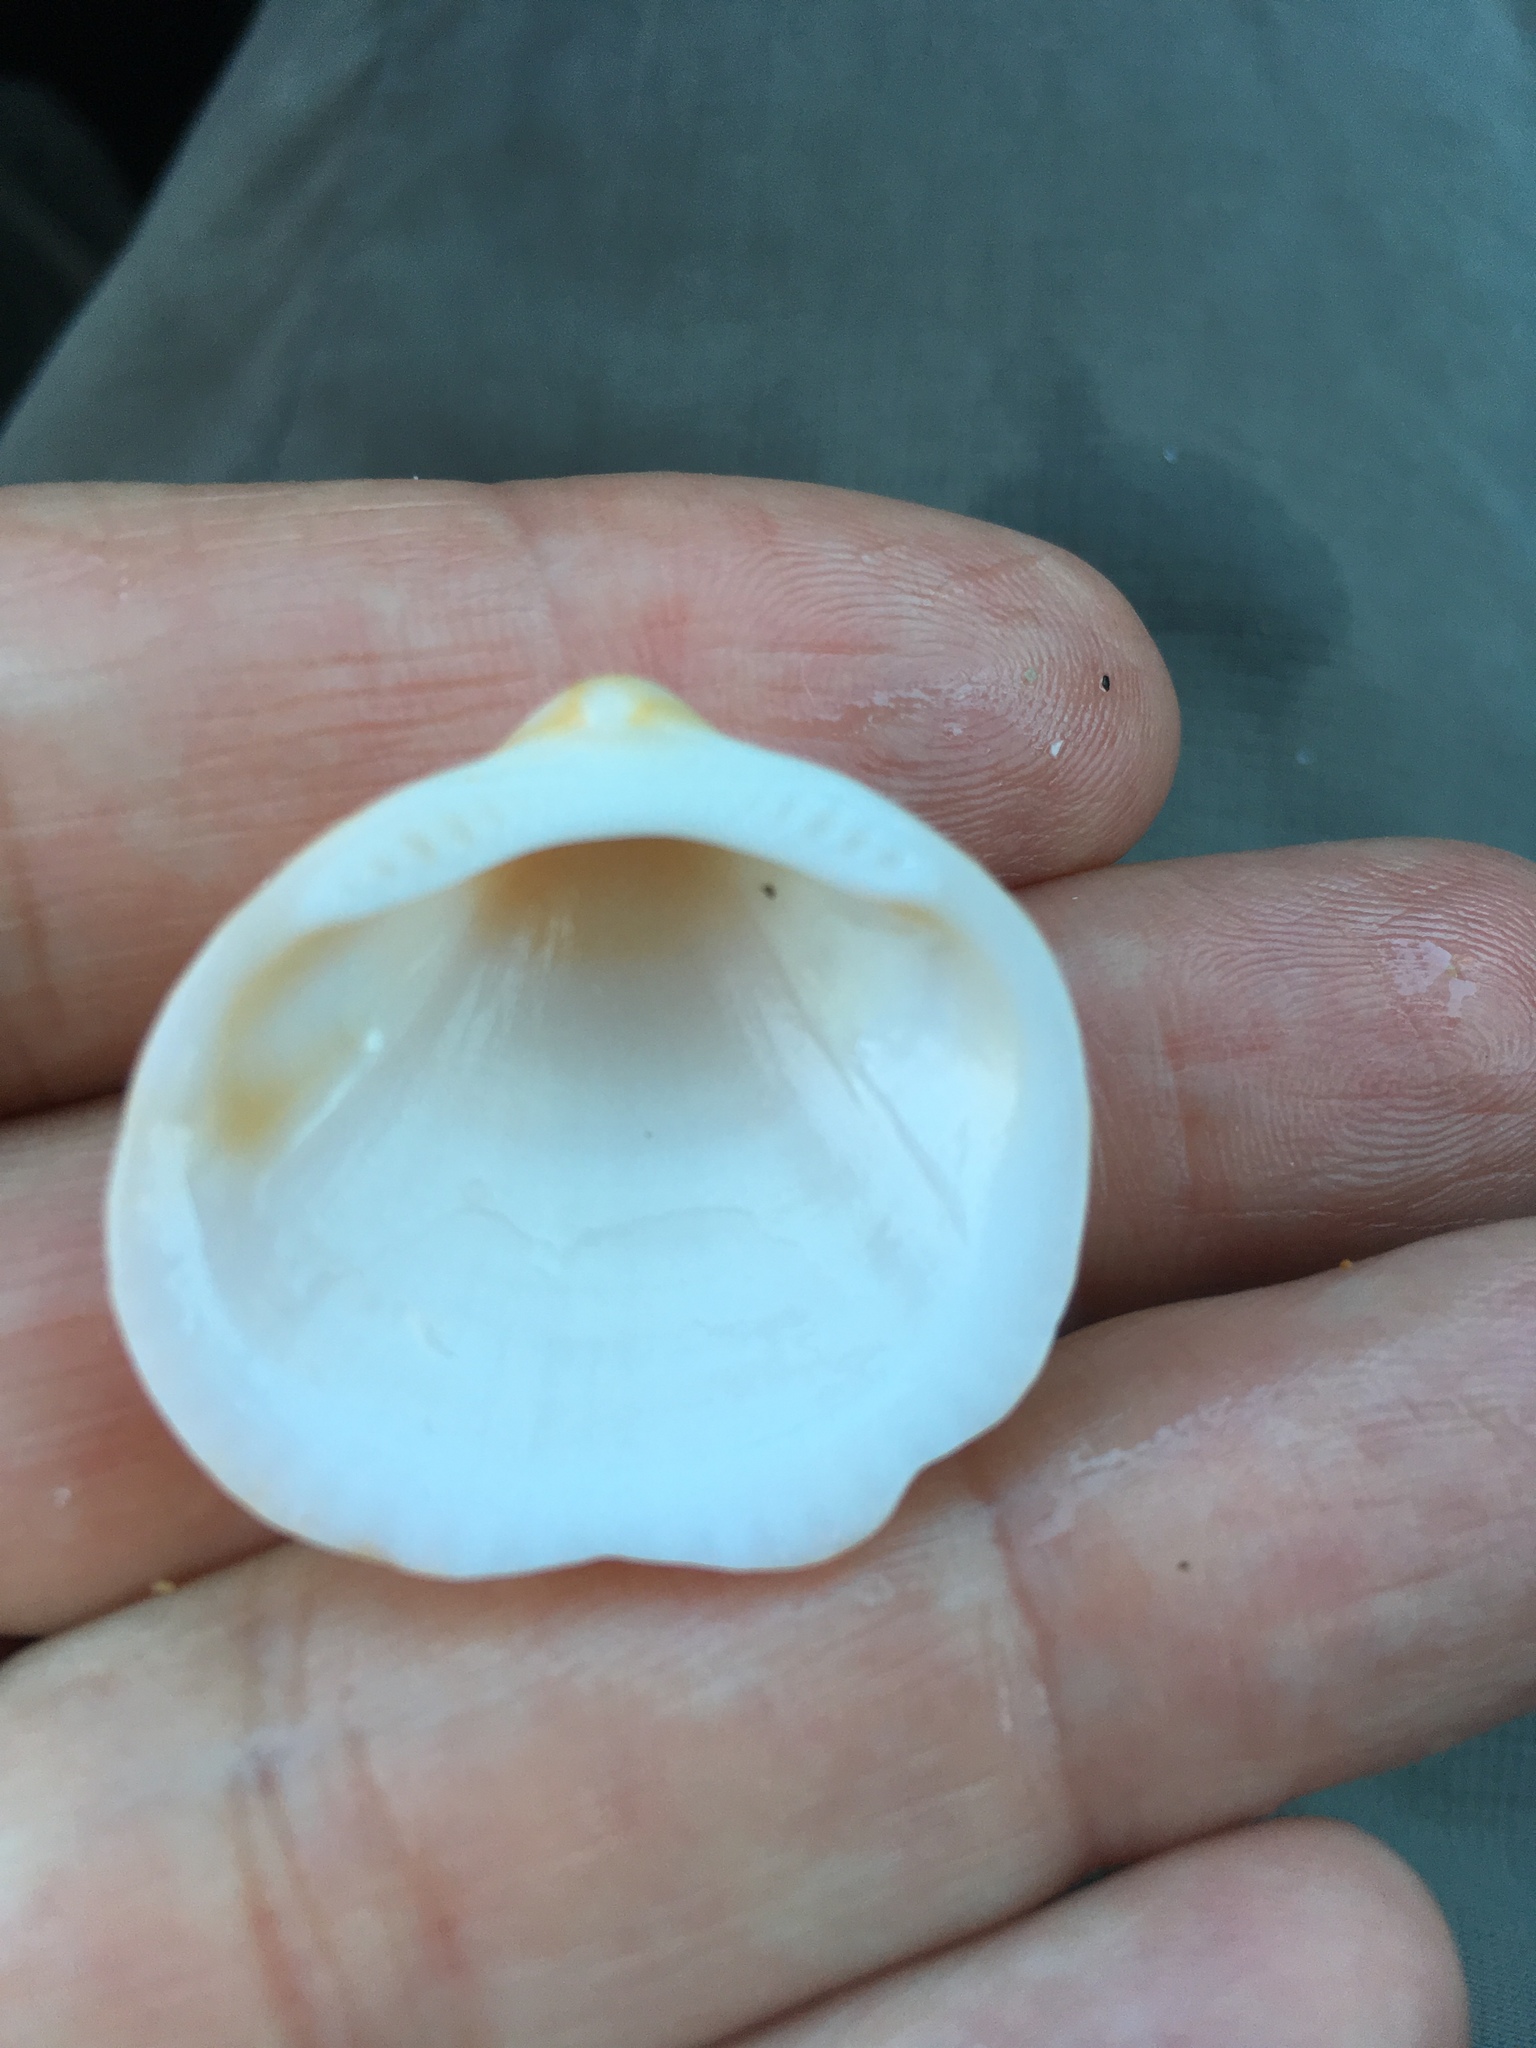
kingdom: Animalia
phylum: Mollusca
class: Bivalvia
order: Arcida
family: Glycymerididae
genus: Glycymeris
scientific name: Glycymeris spectralis
